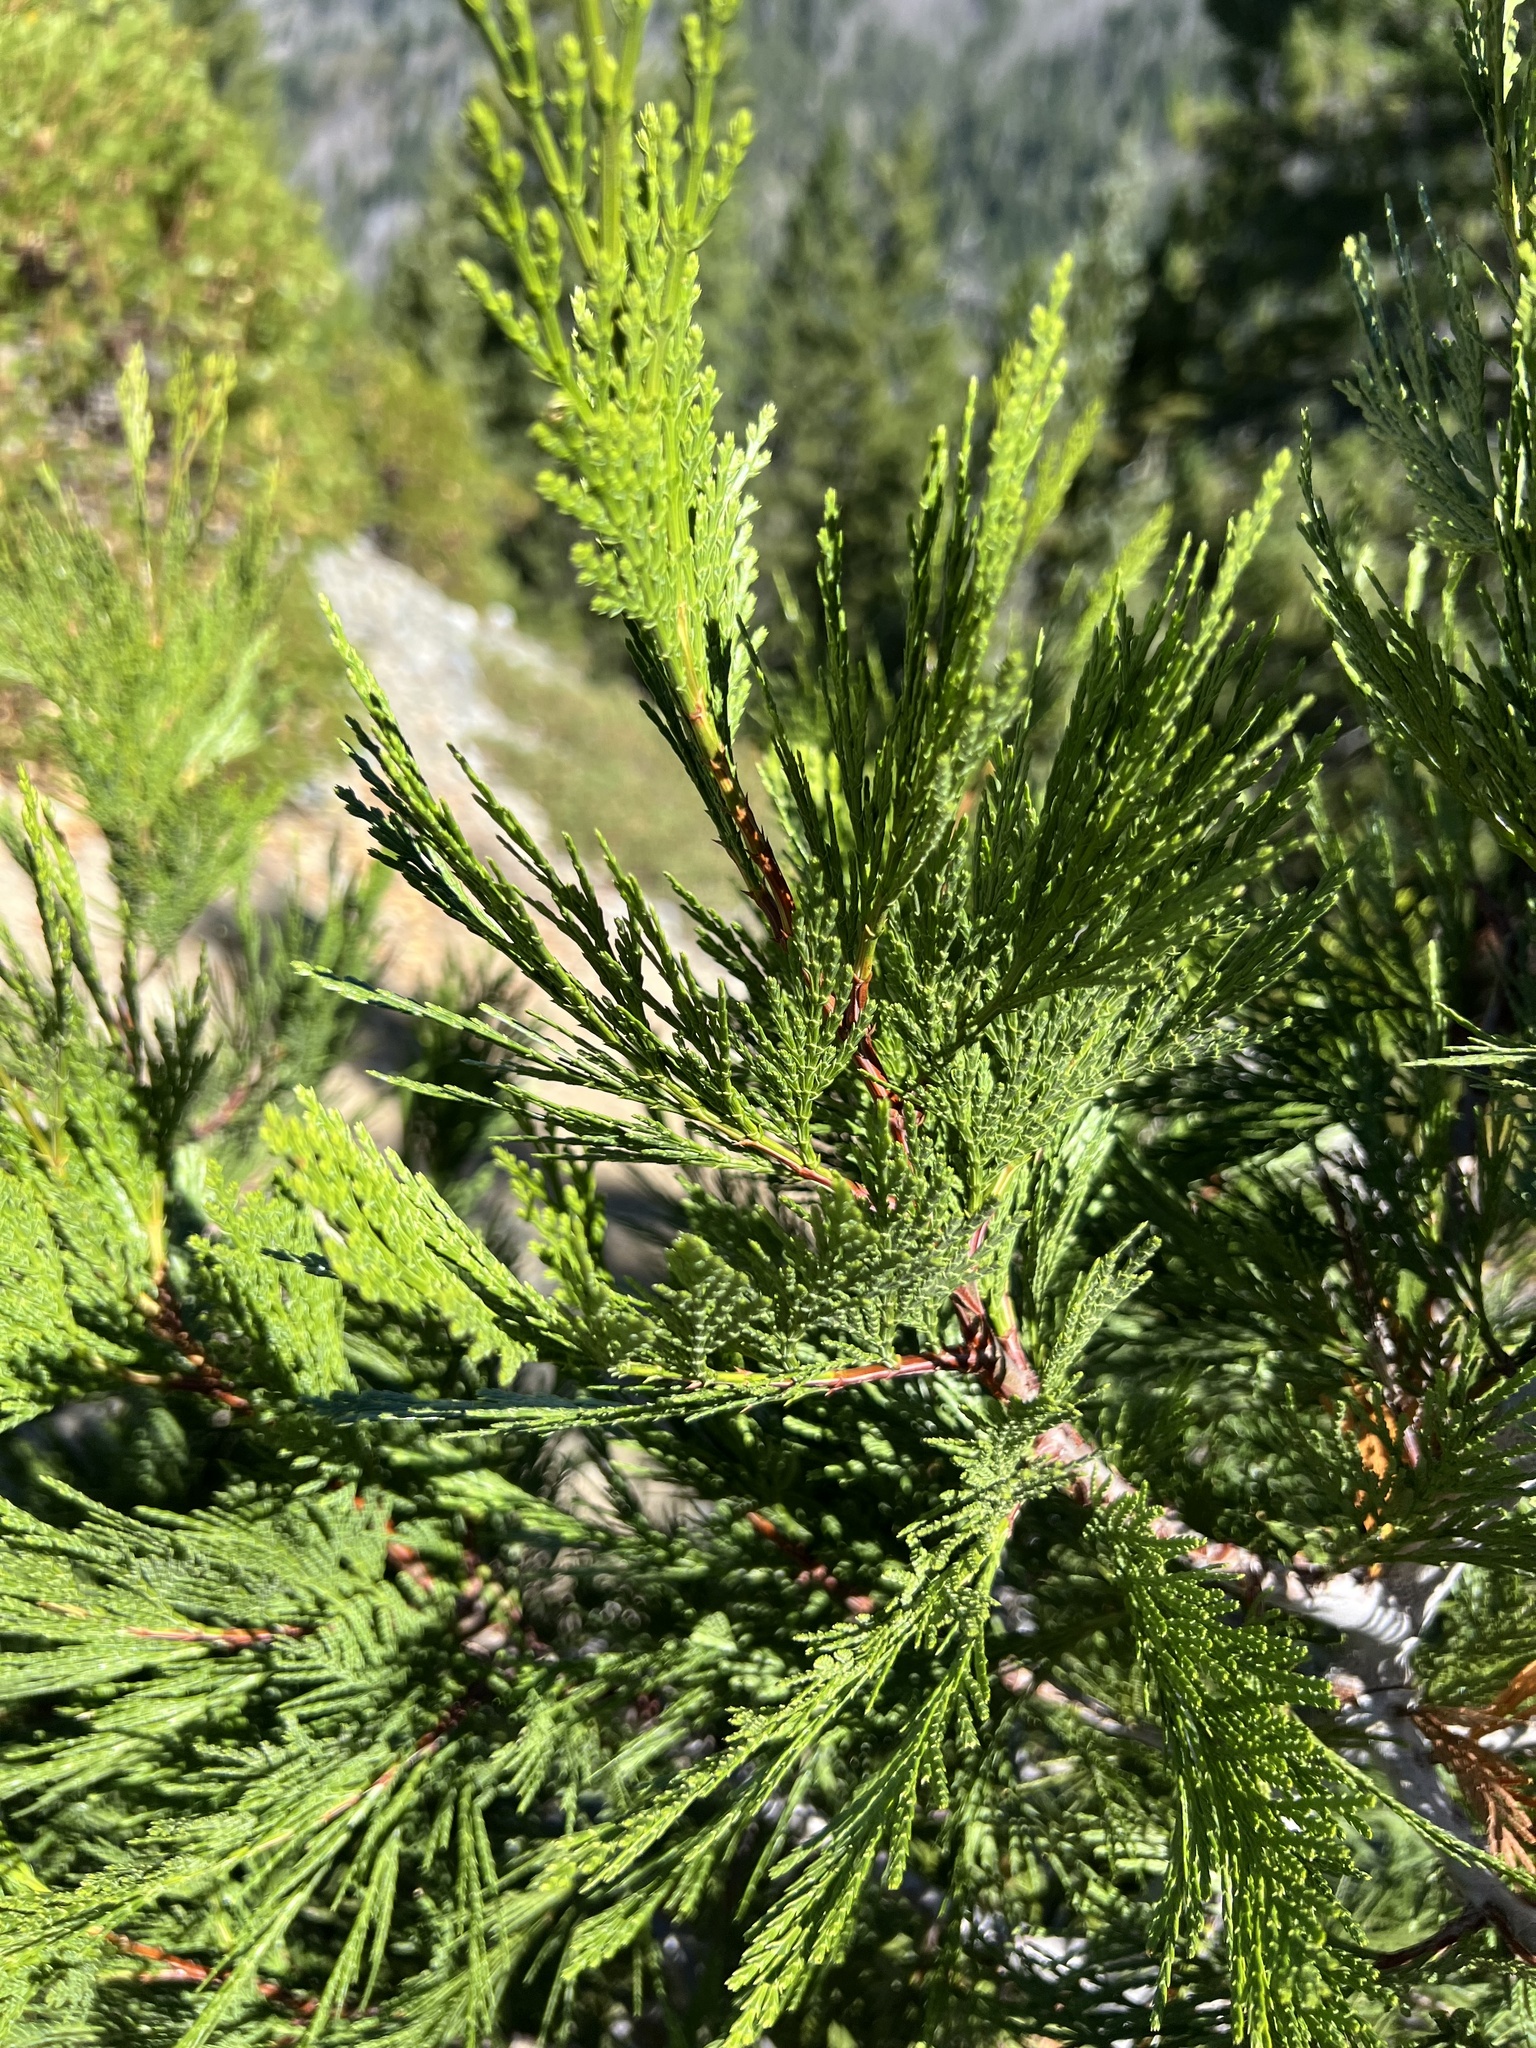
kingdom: Plantae
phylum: Tracheophyta
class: Pinopsida
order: Pinales
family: Cupressaceae
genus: Calocedrus
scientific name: Calocedrus decurrens
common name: Californian incense-cedar
